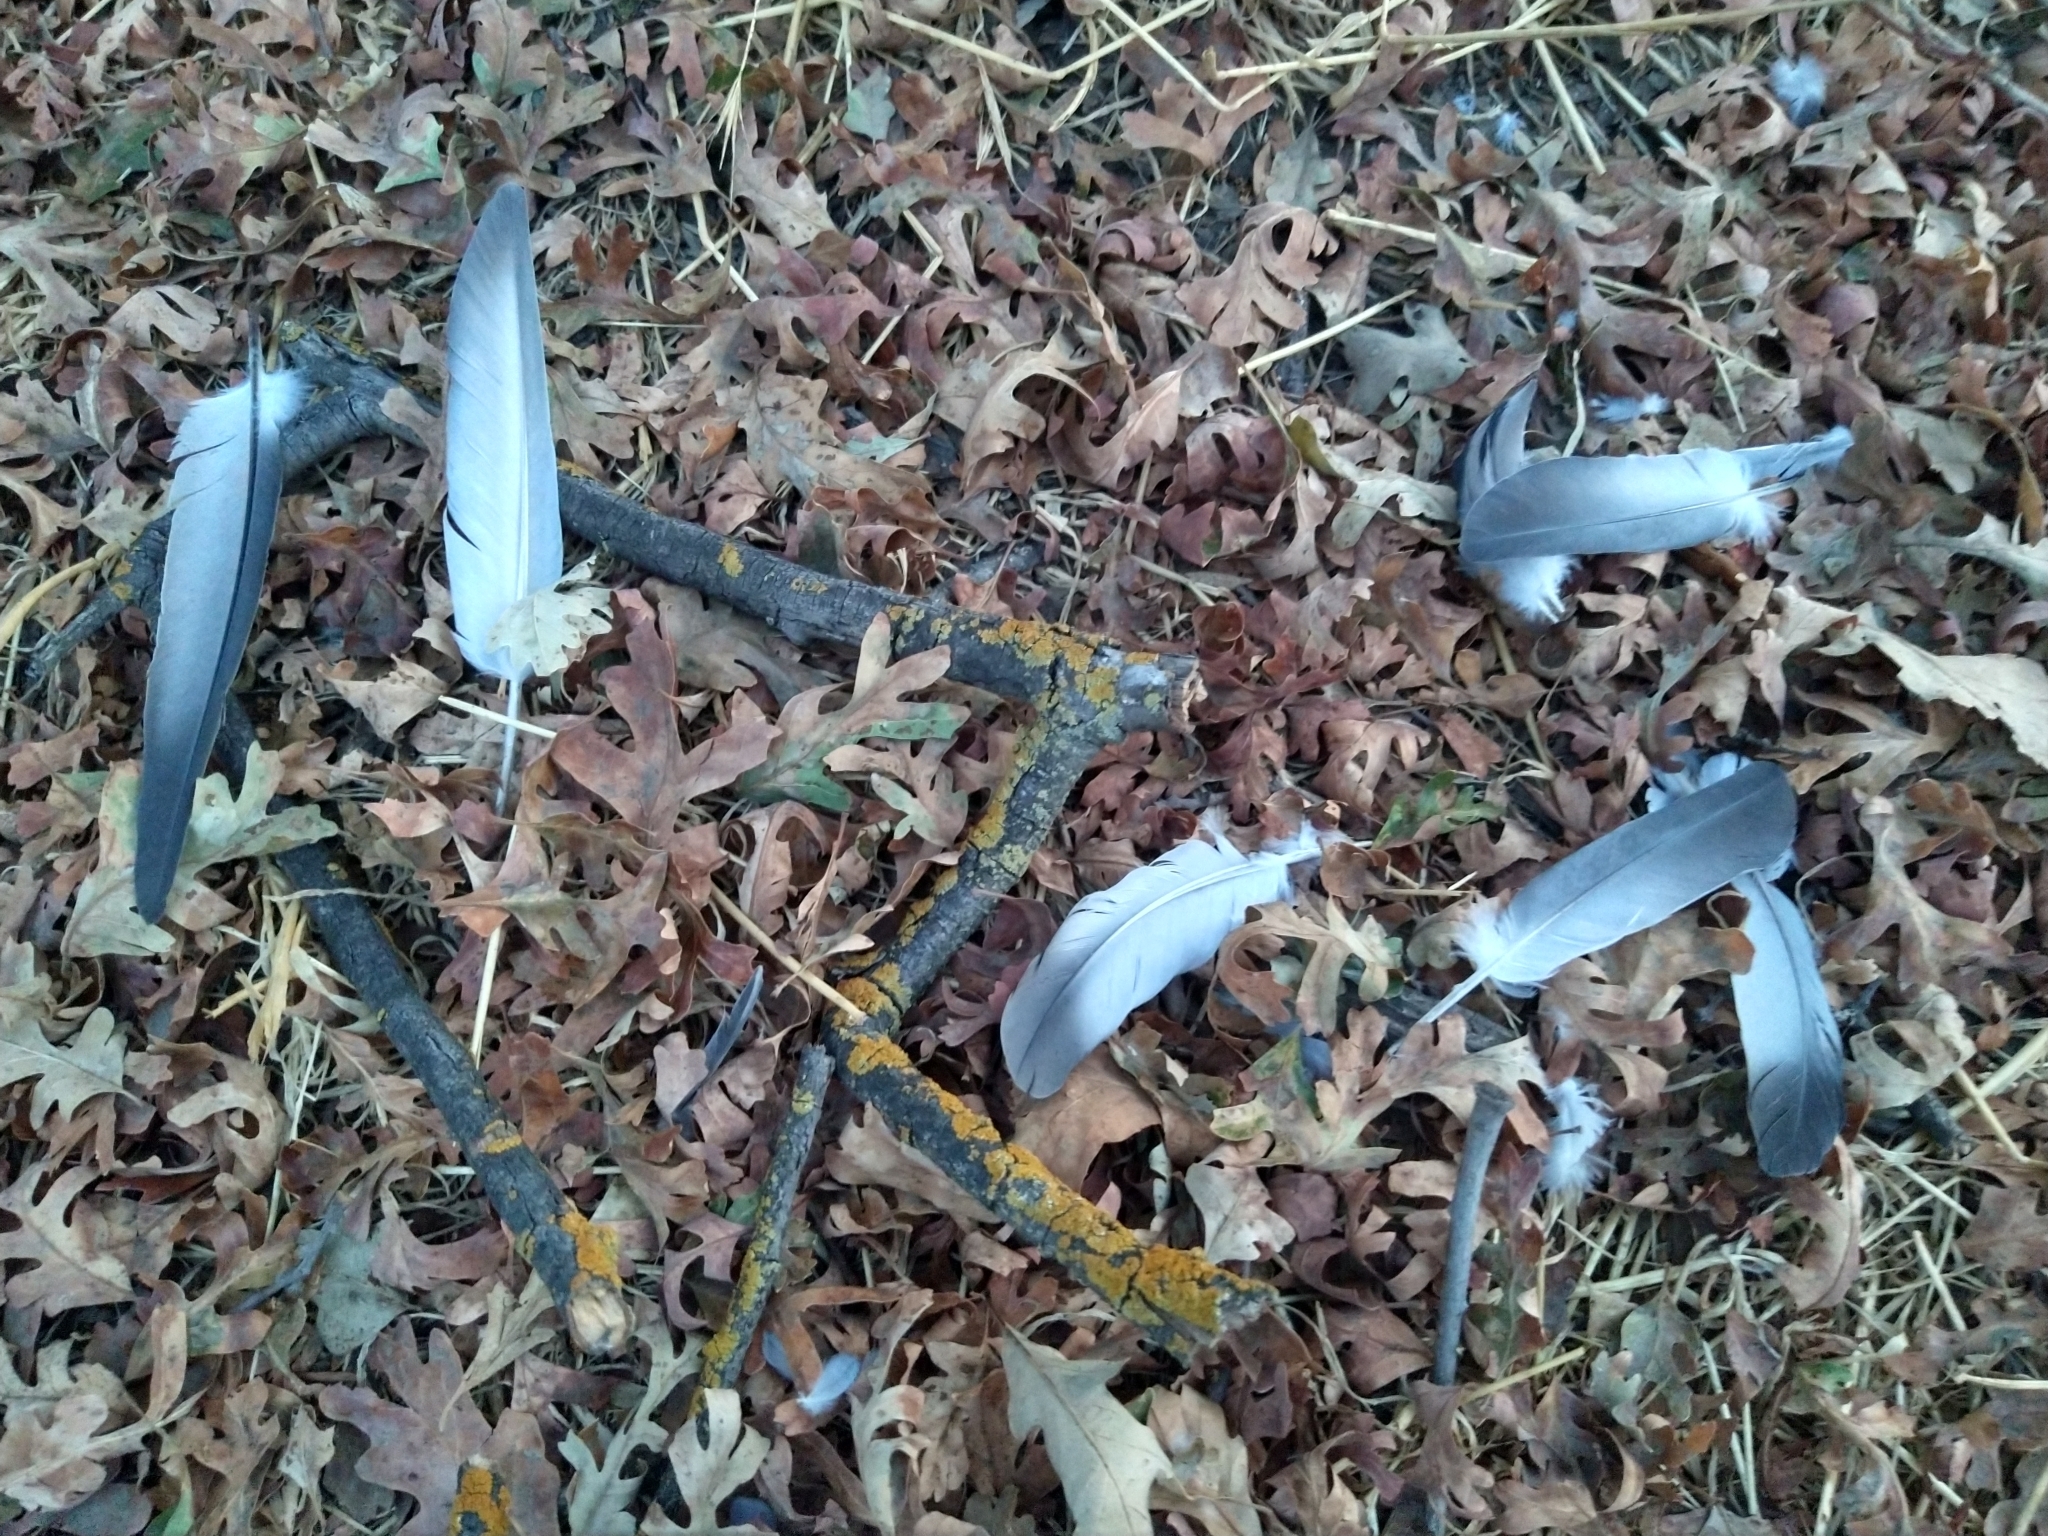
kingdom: Animalia
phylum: Chordata
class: Aves
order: Columbiformes
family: Columbidae
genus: Columba
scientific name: Columba livia
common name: Rock pigeon
